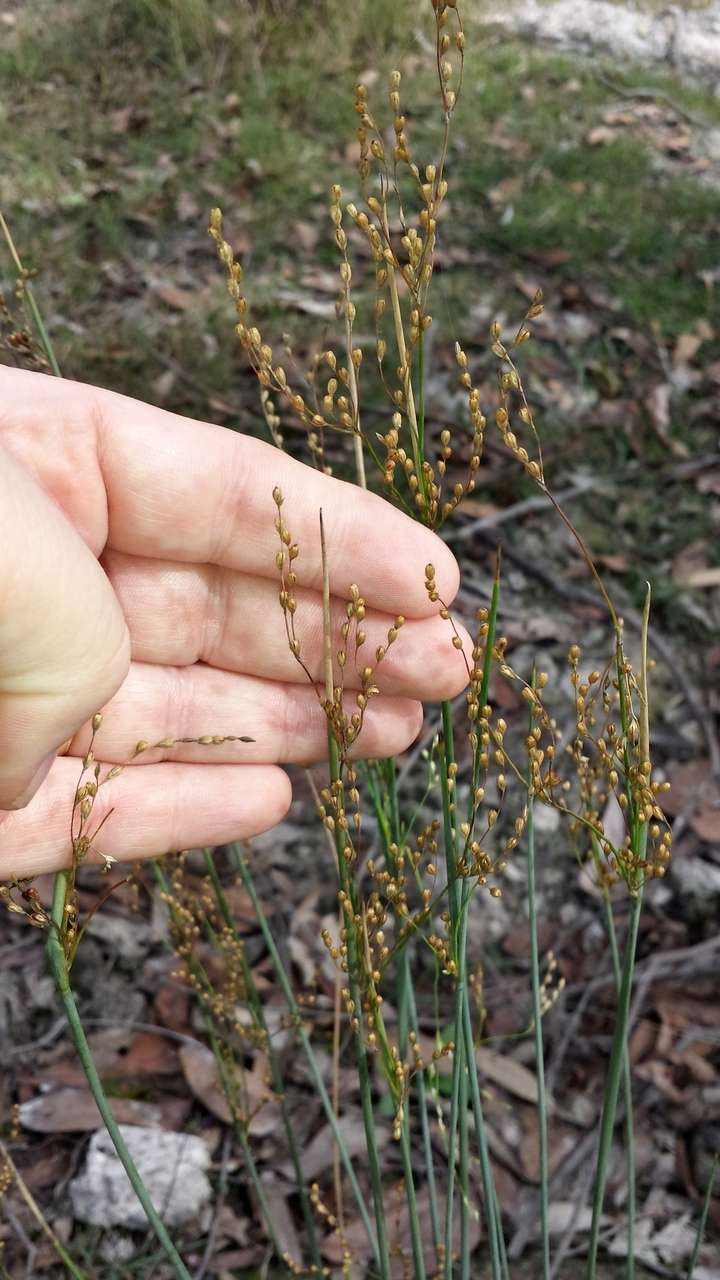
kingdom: Plantae
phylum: Tracheophyta
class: Liliopsida
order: Poales
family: Juncaceae
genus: Juncus
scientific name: Juncus remotiflorus
